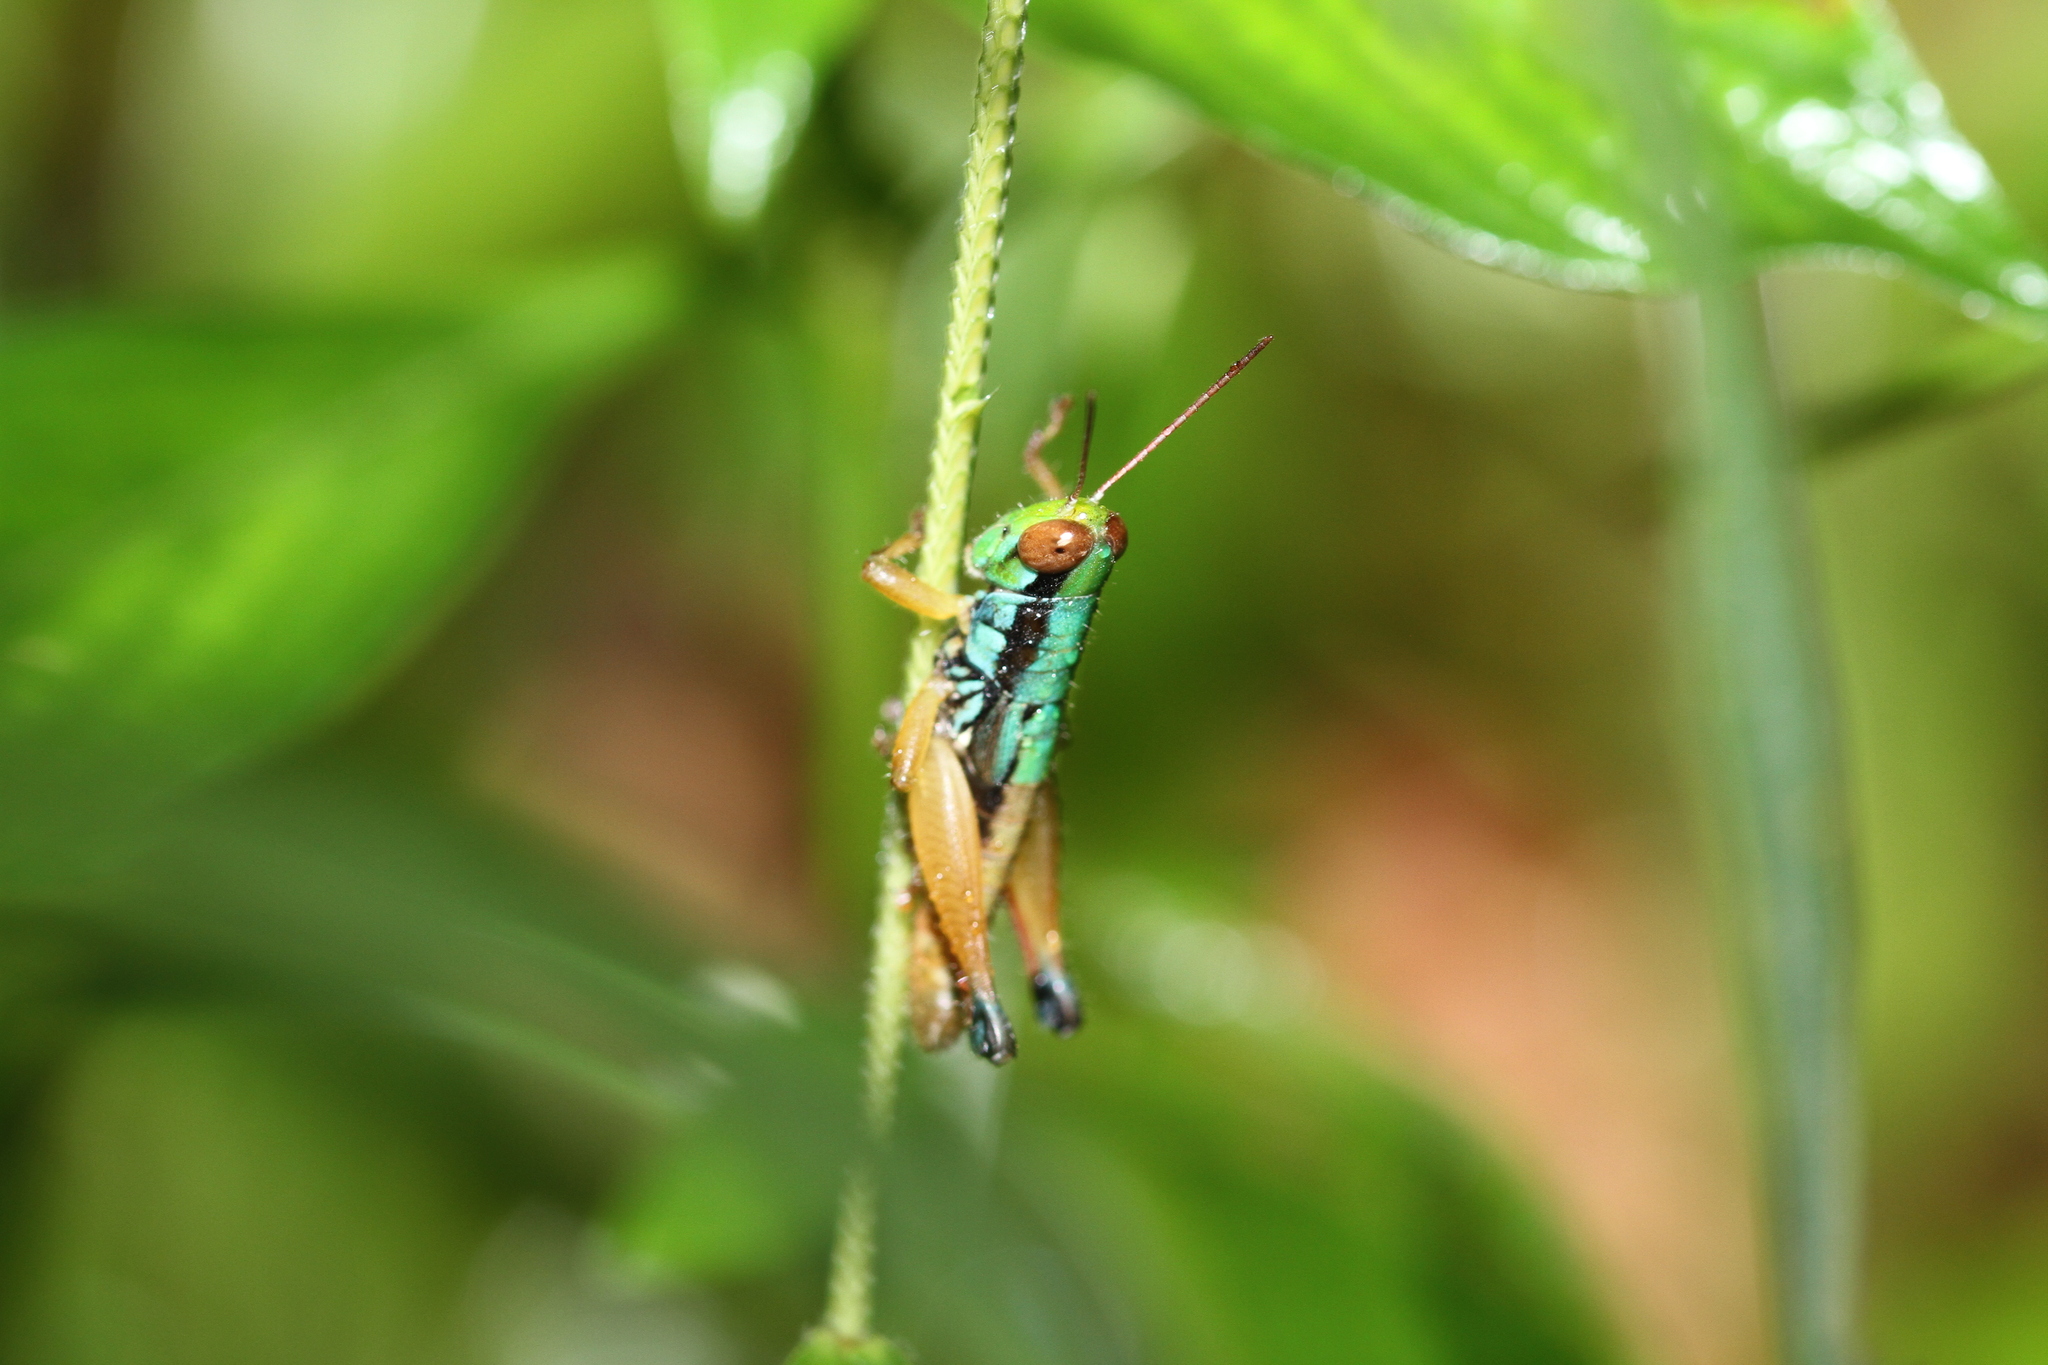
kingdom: Animalia
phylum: Arthropoda
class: Insecta
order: Orthoptera
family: Acrididae
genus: Caryanda
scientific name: Caryanda spuria
